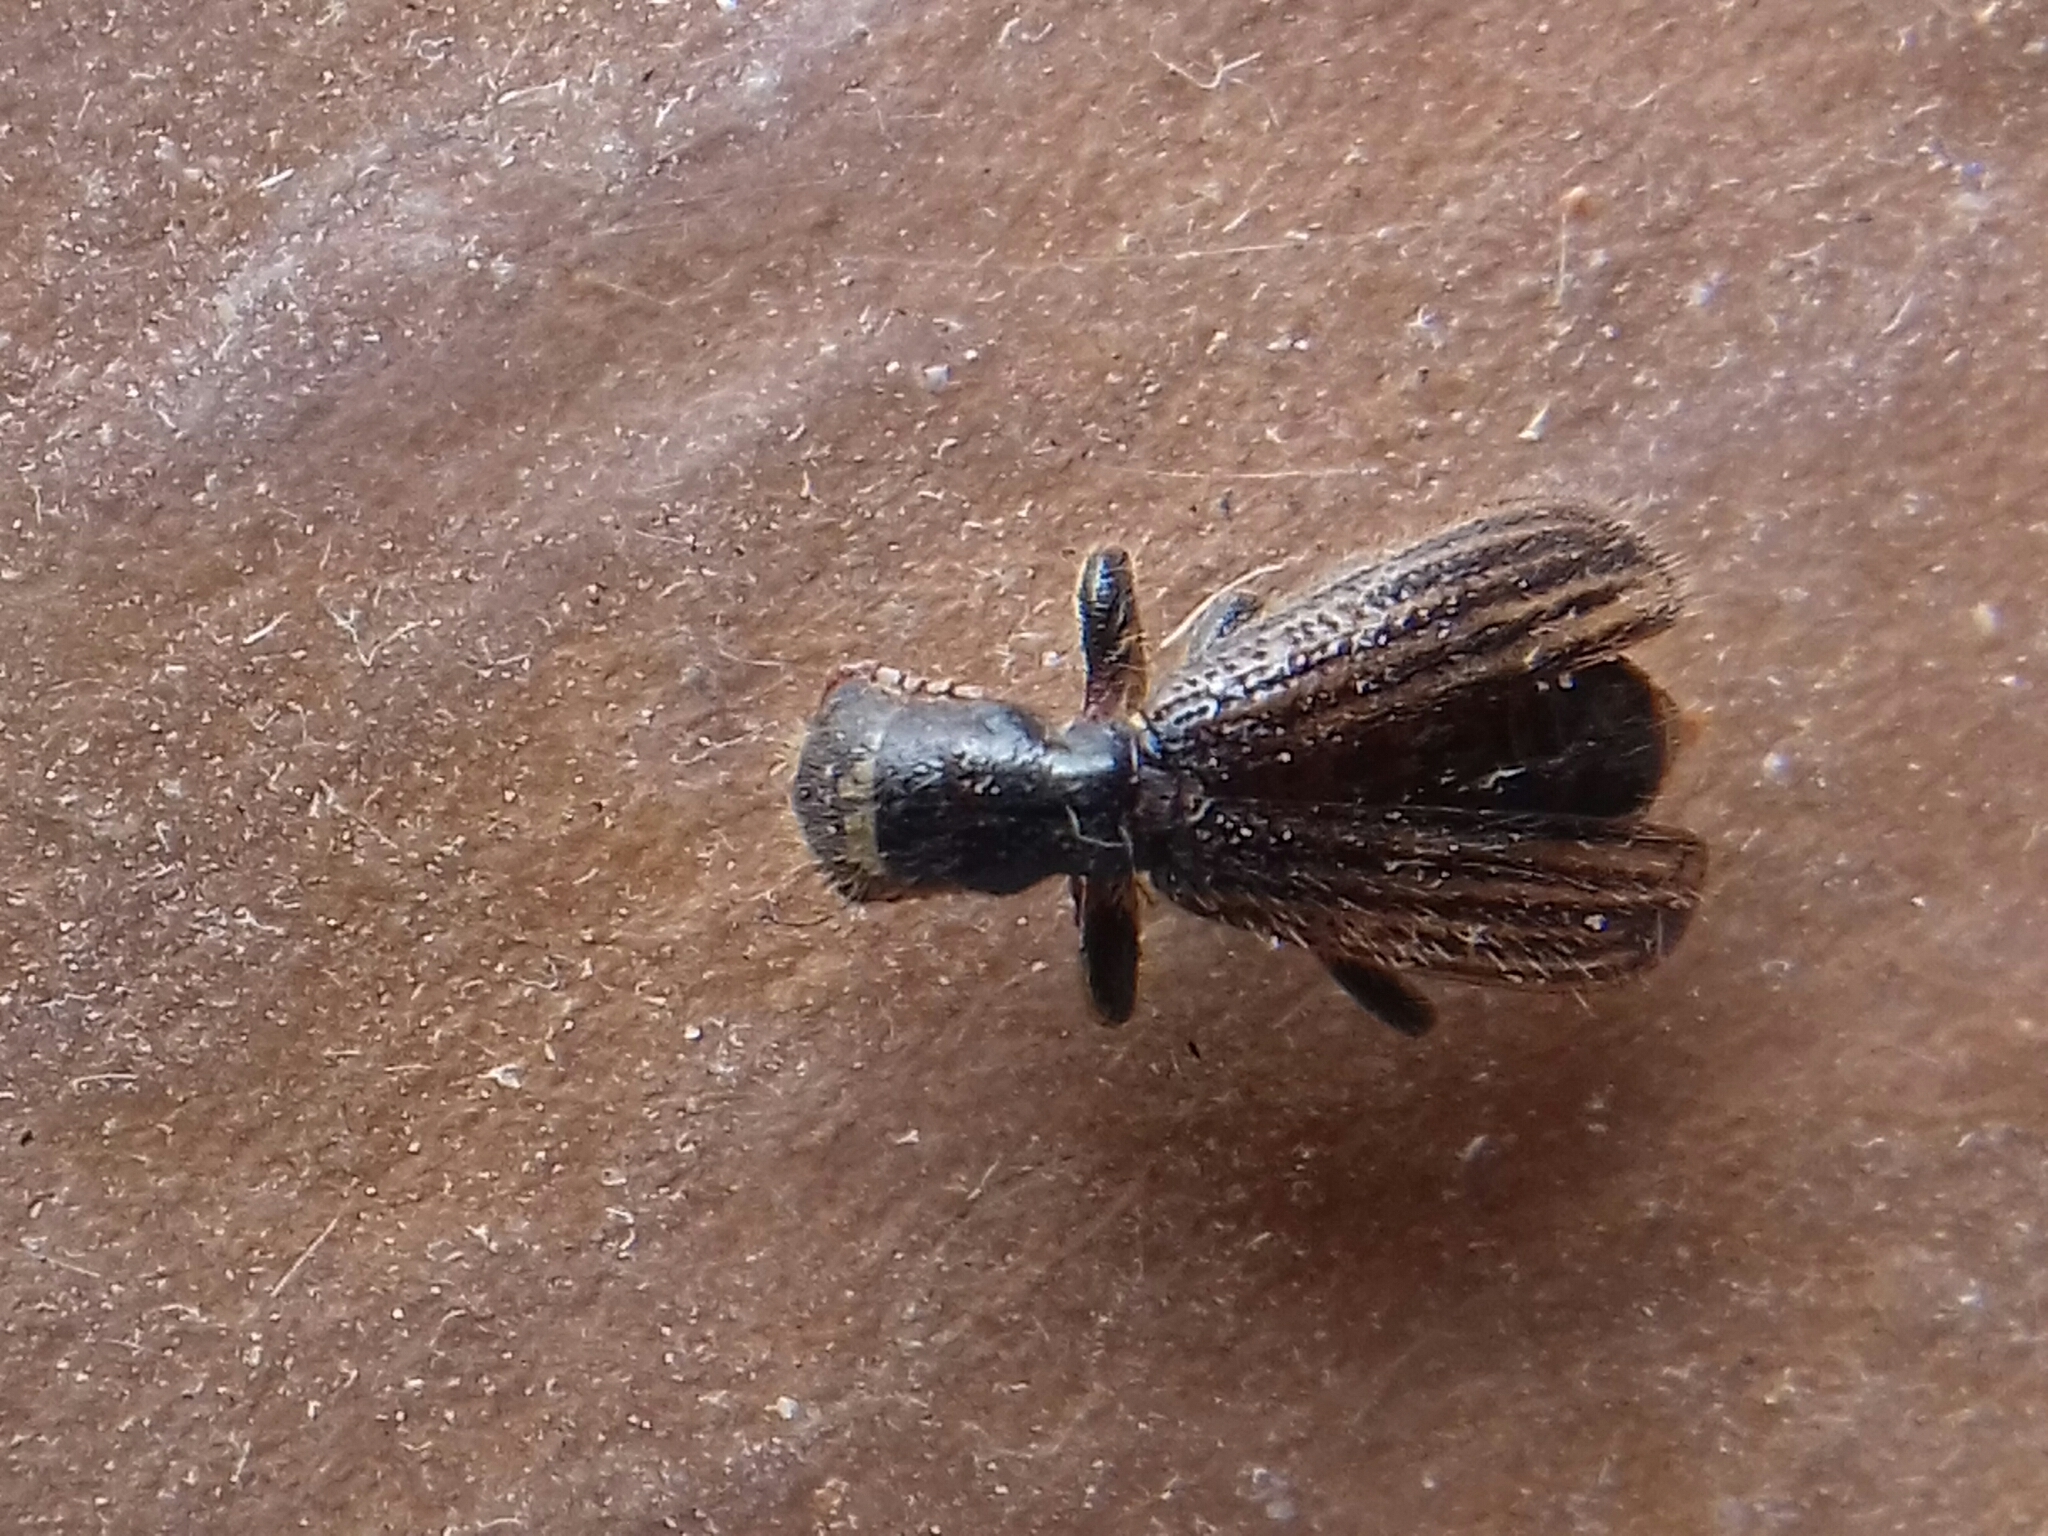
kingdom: Animalia
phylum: Arthropoda
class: Insecta
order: Coleoptera
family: Cleridae
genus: Cymatodera
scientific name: Cymatodera lineata
